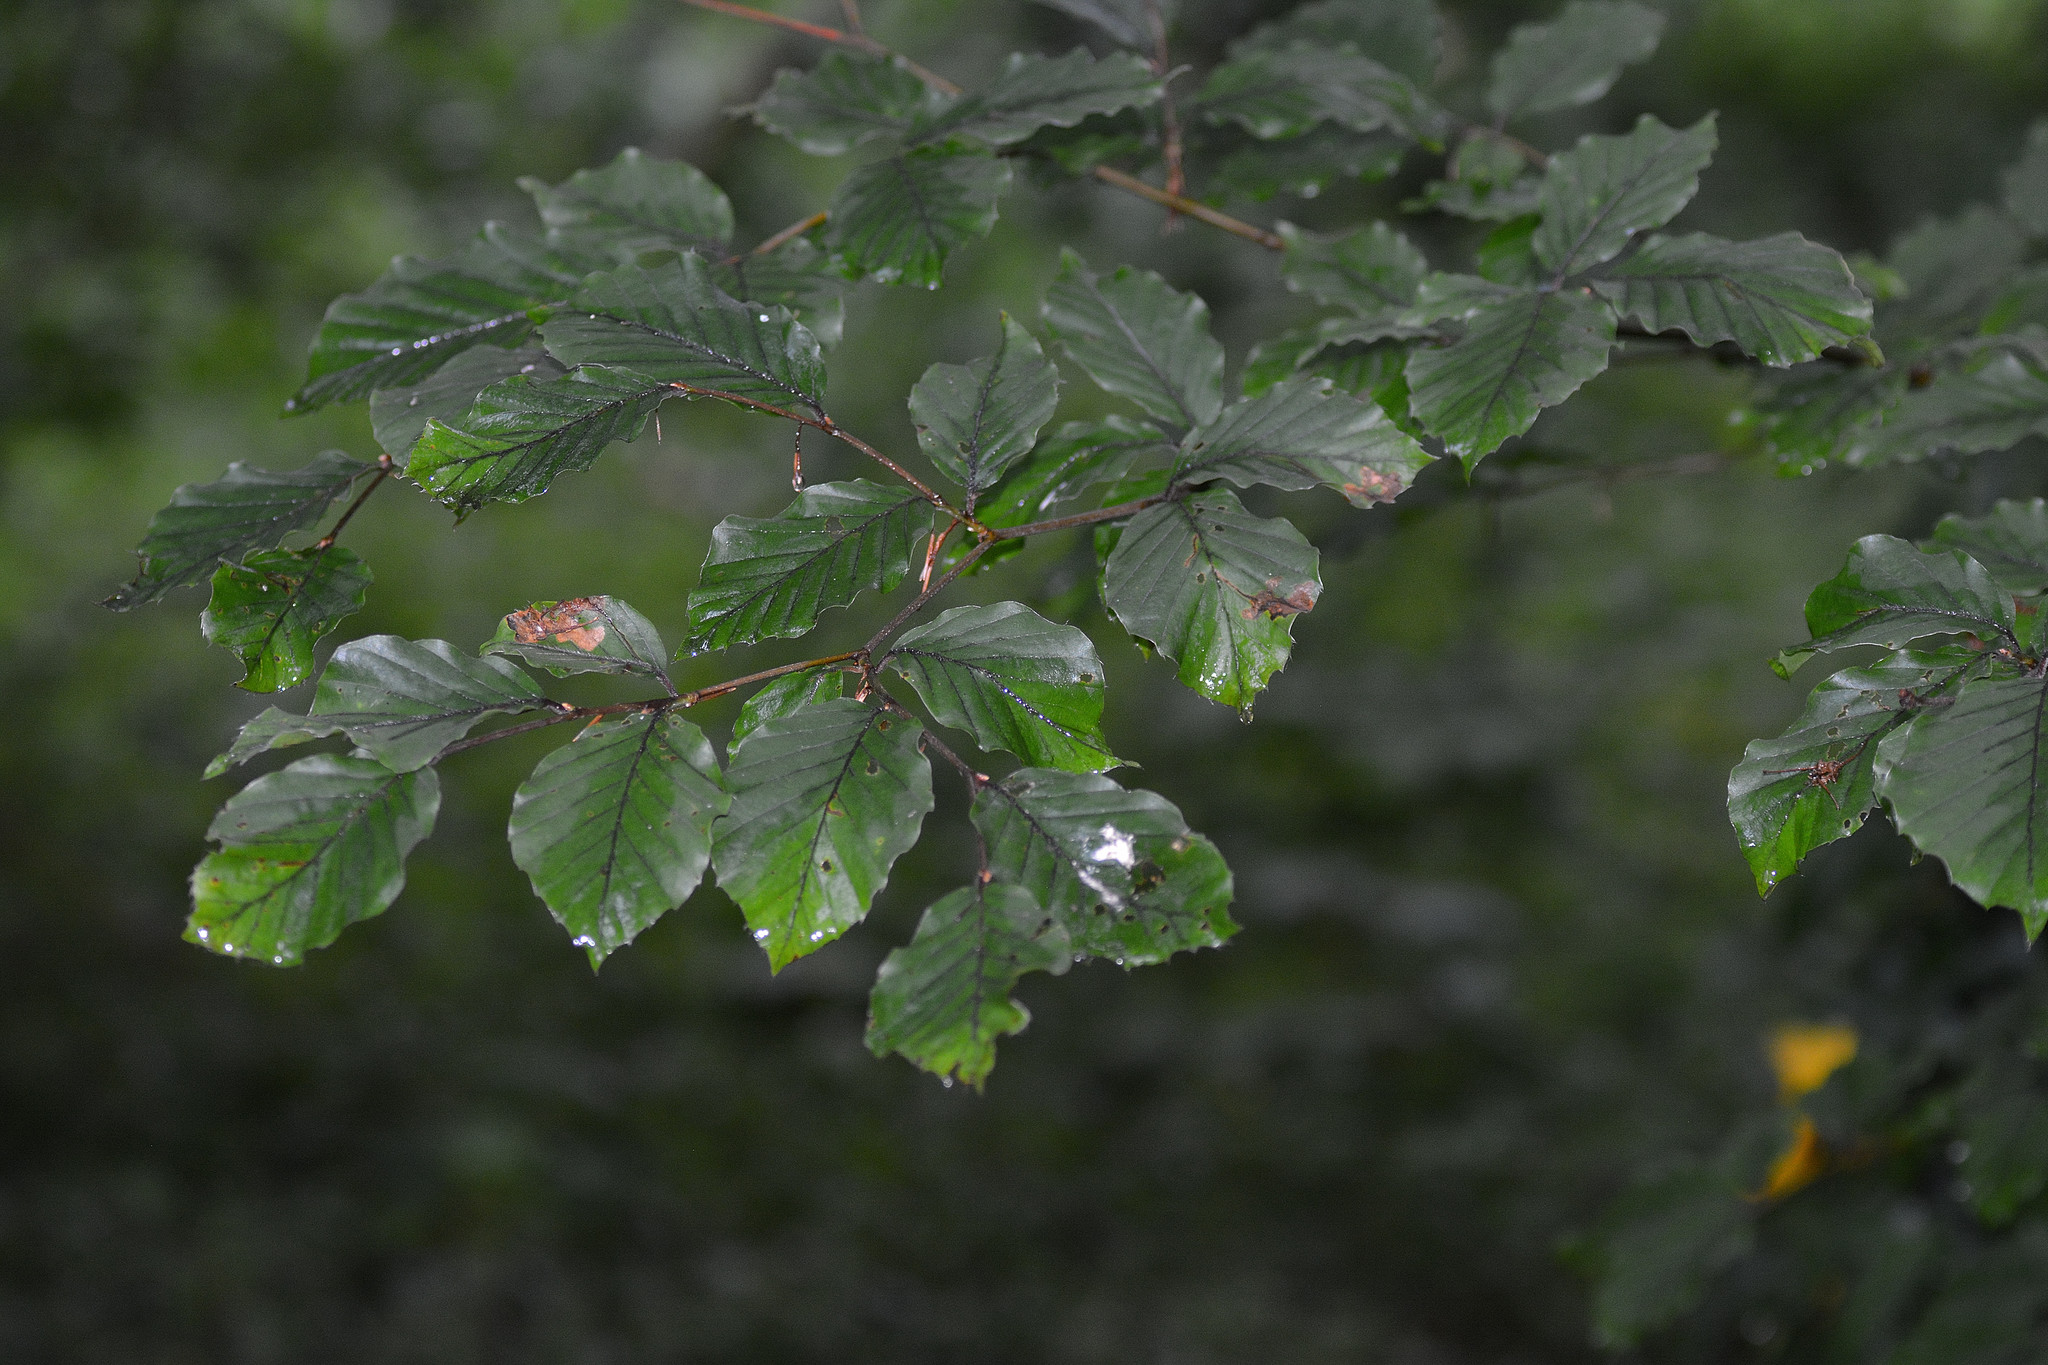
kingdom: Plantae
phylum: Tracheophyta
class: Magnoliopsida
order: Fagales
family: Fagaceae
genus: Fagus
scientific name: Fagus sylvatica
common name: Beech
